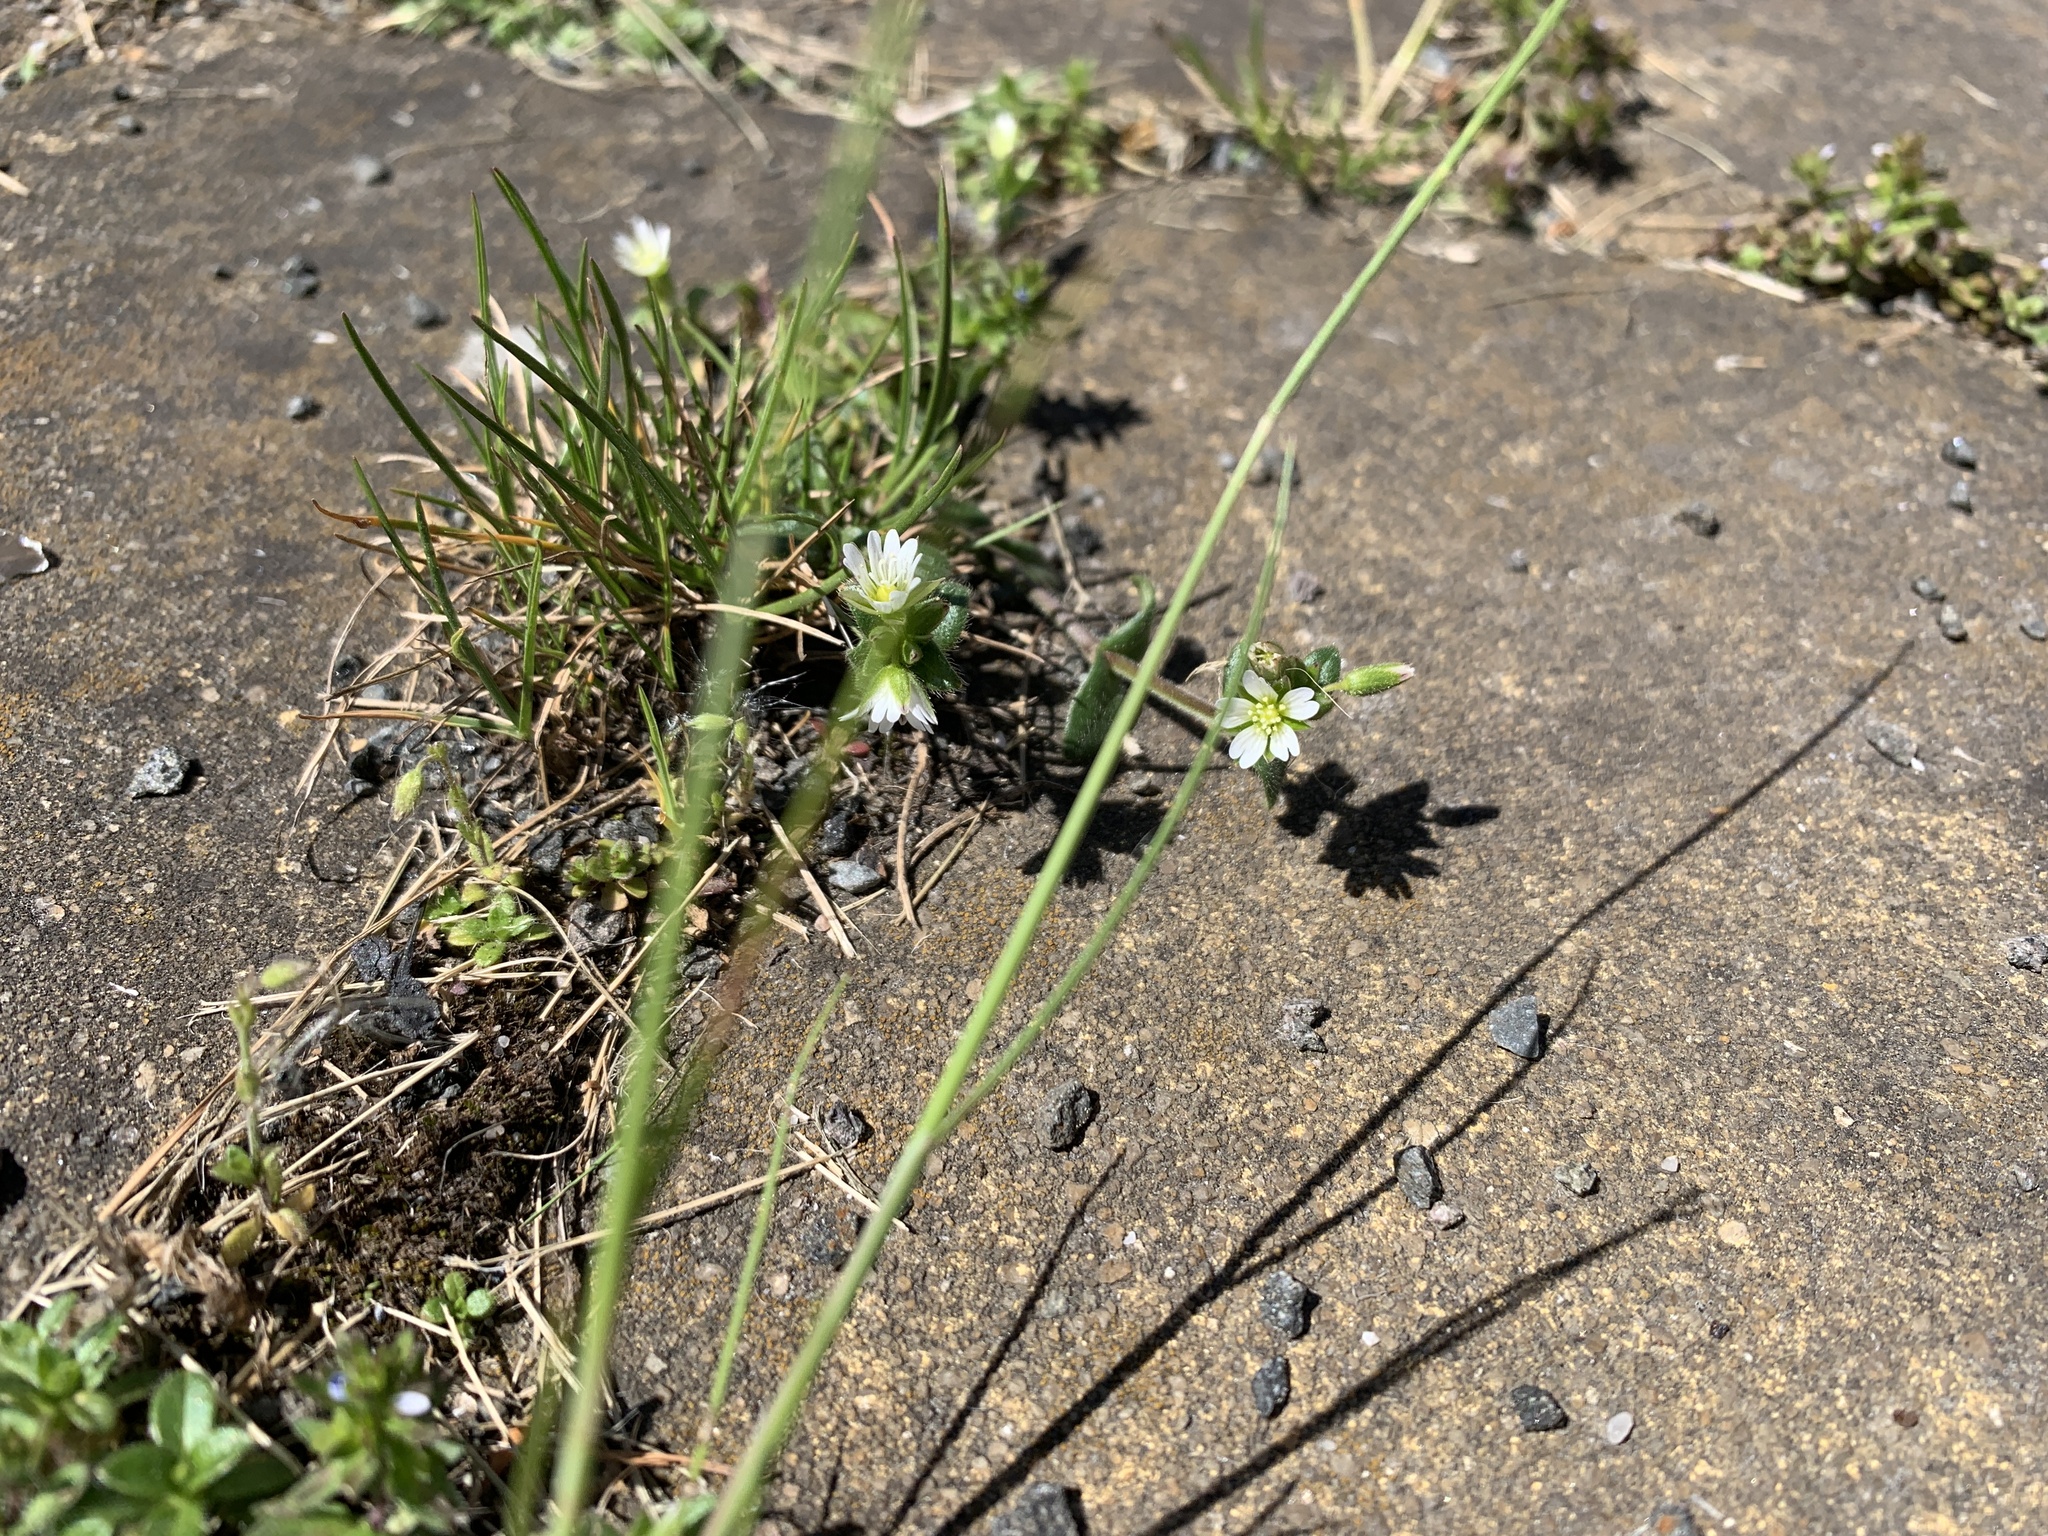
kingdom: Plantae
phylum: Tracheophyta
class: Magnoliopsida
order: Caryophyllales
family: Caryophyllaceae
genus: Cerastium
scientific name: Cerastium holosteoides
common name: Big chickweed
